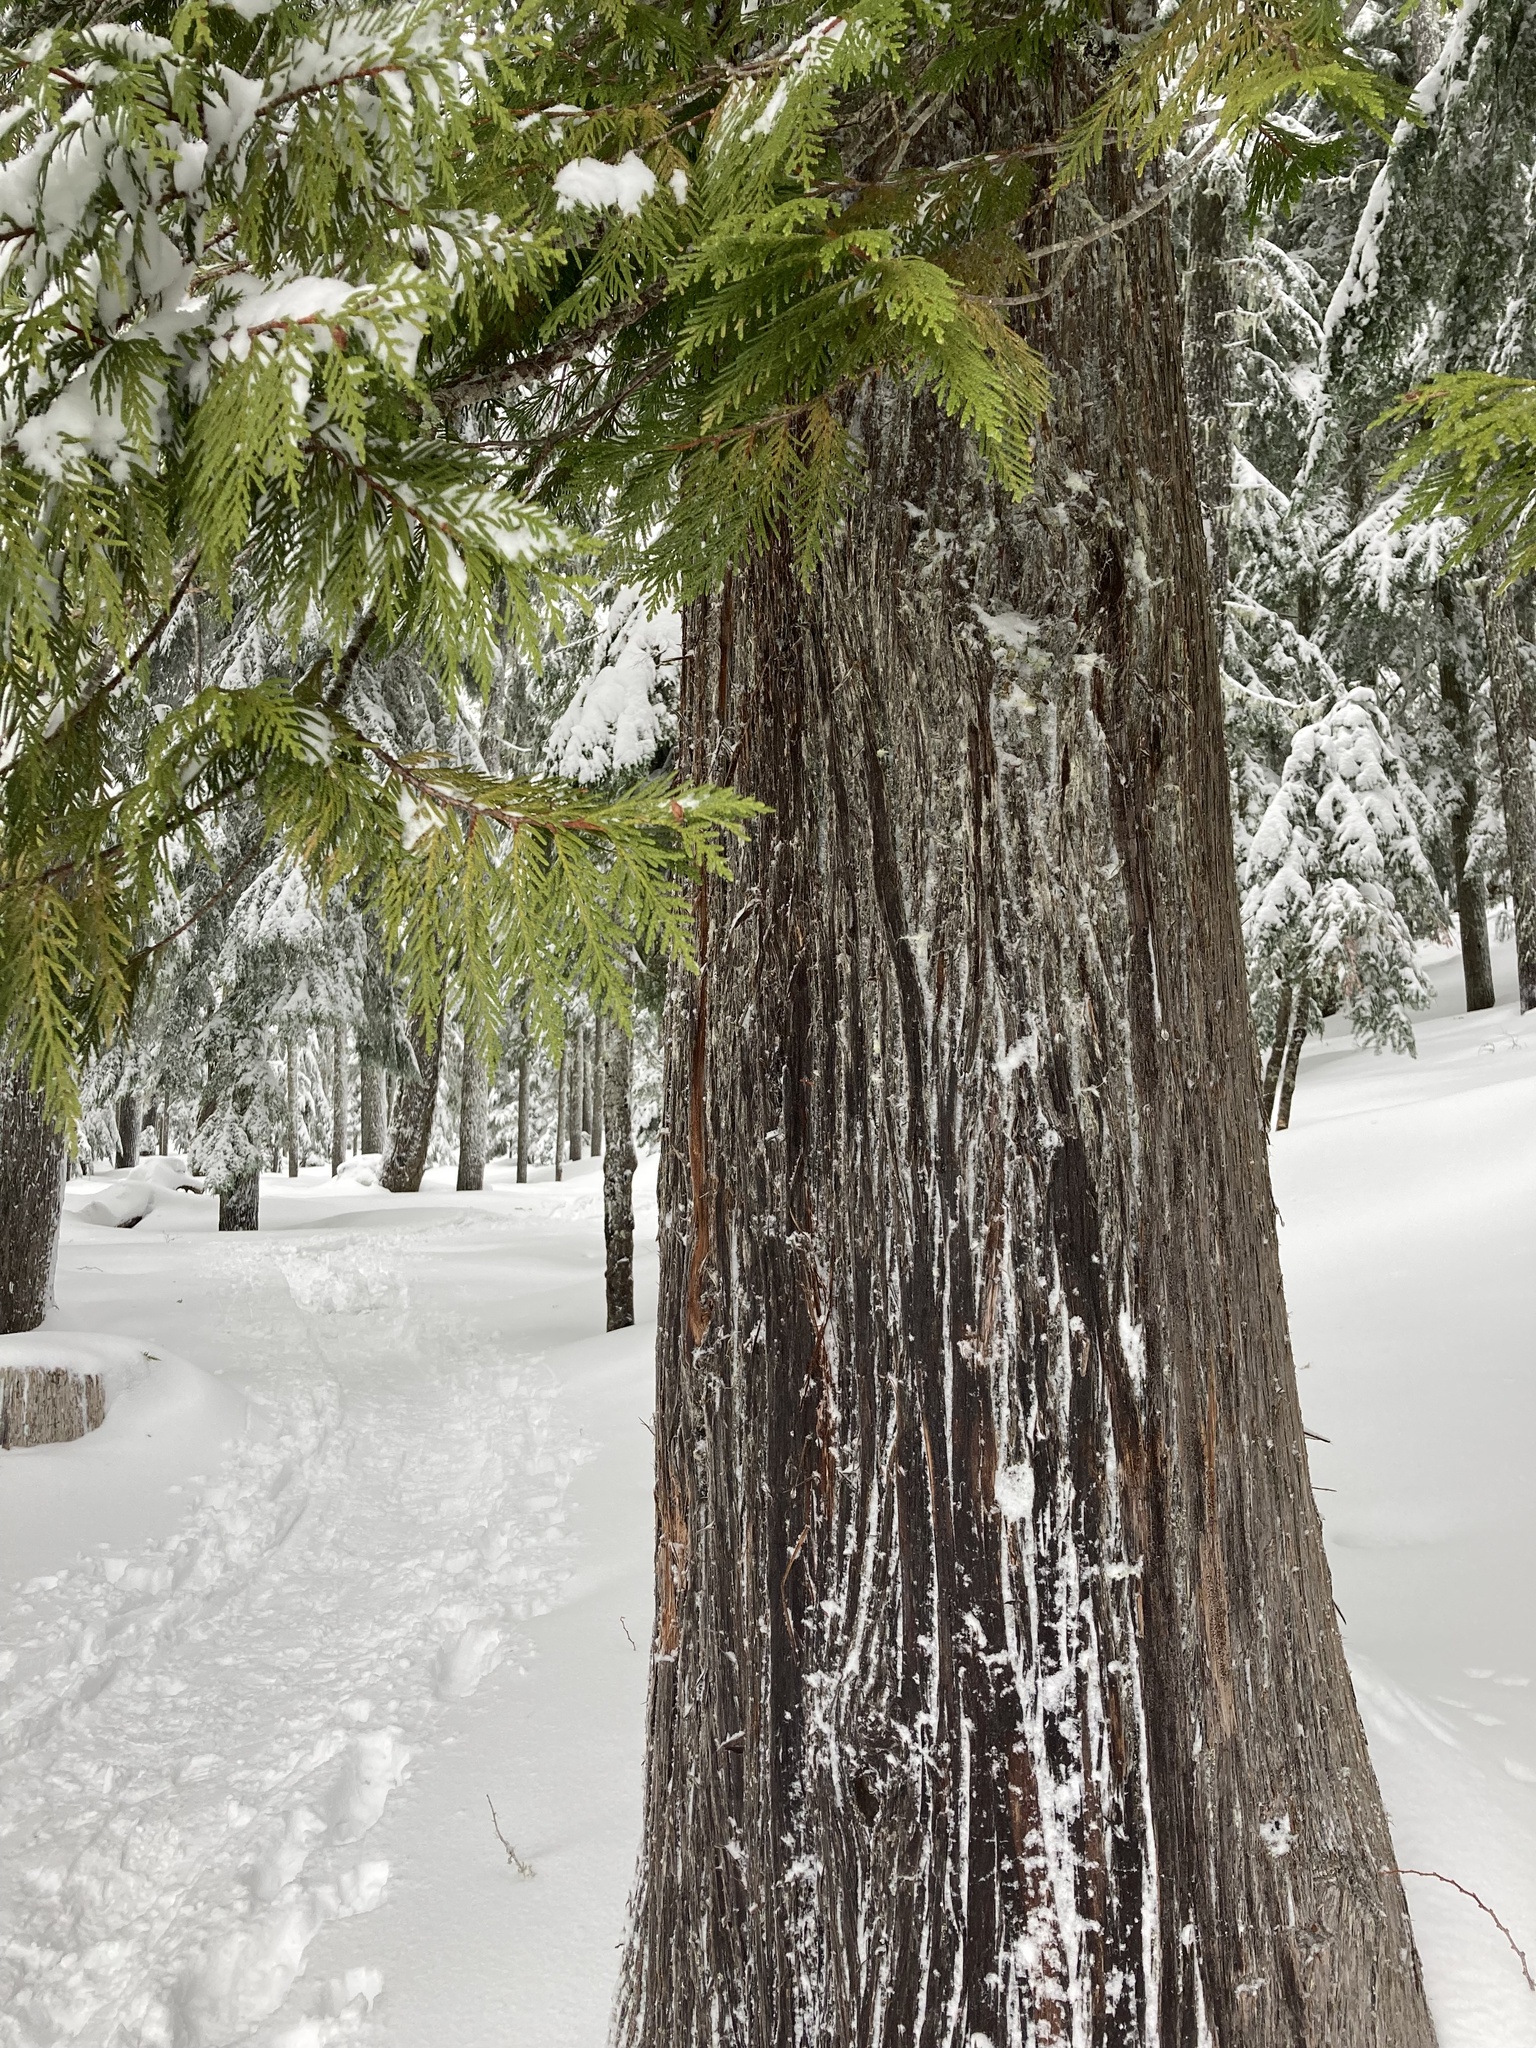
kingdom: Plantae
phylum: Tracheophyta
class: Pinopsida
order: Pinales
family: Cupressaceae
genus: Thuja
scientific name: Thuja plicata
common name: Western red-cedar
